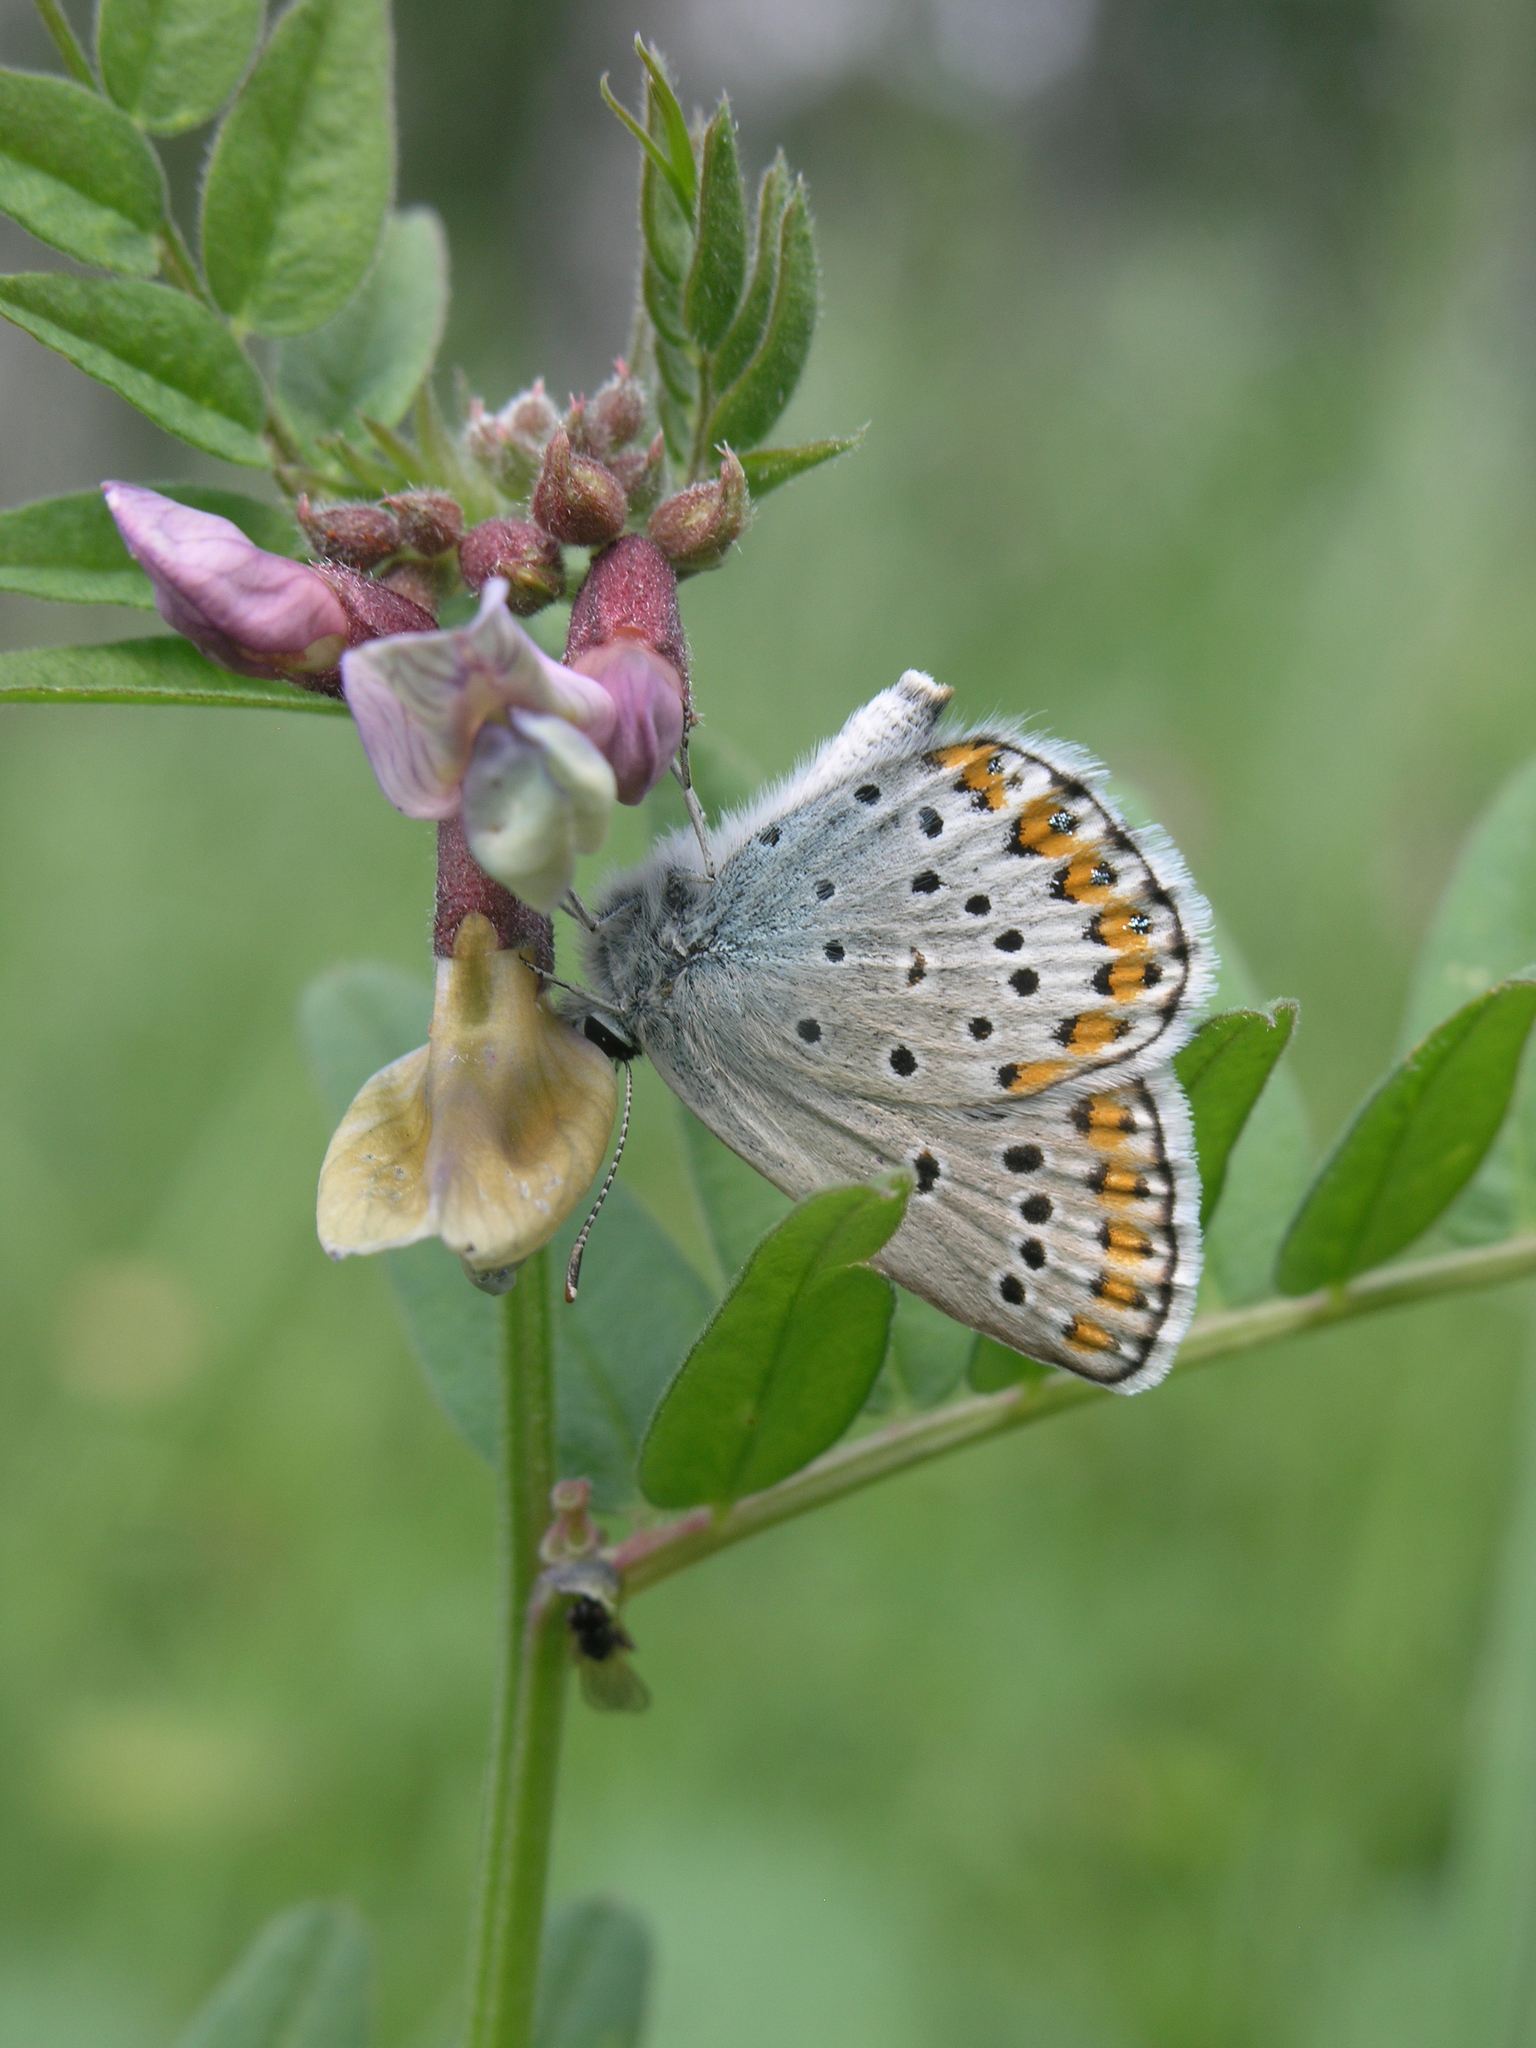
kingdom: Plantae
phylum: Tracheophyta
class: Magnoliopsida
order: Fabales
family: Fabaceae
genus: Vicia
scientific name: Vicia sepium
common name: Bush vetch
